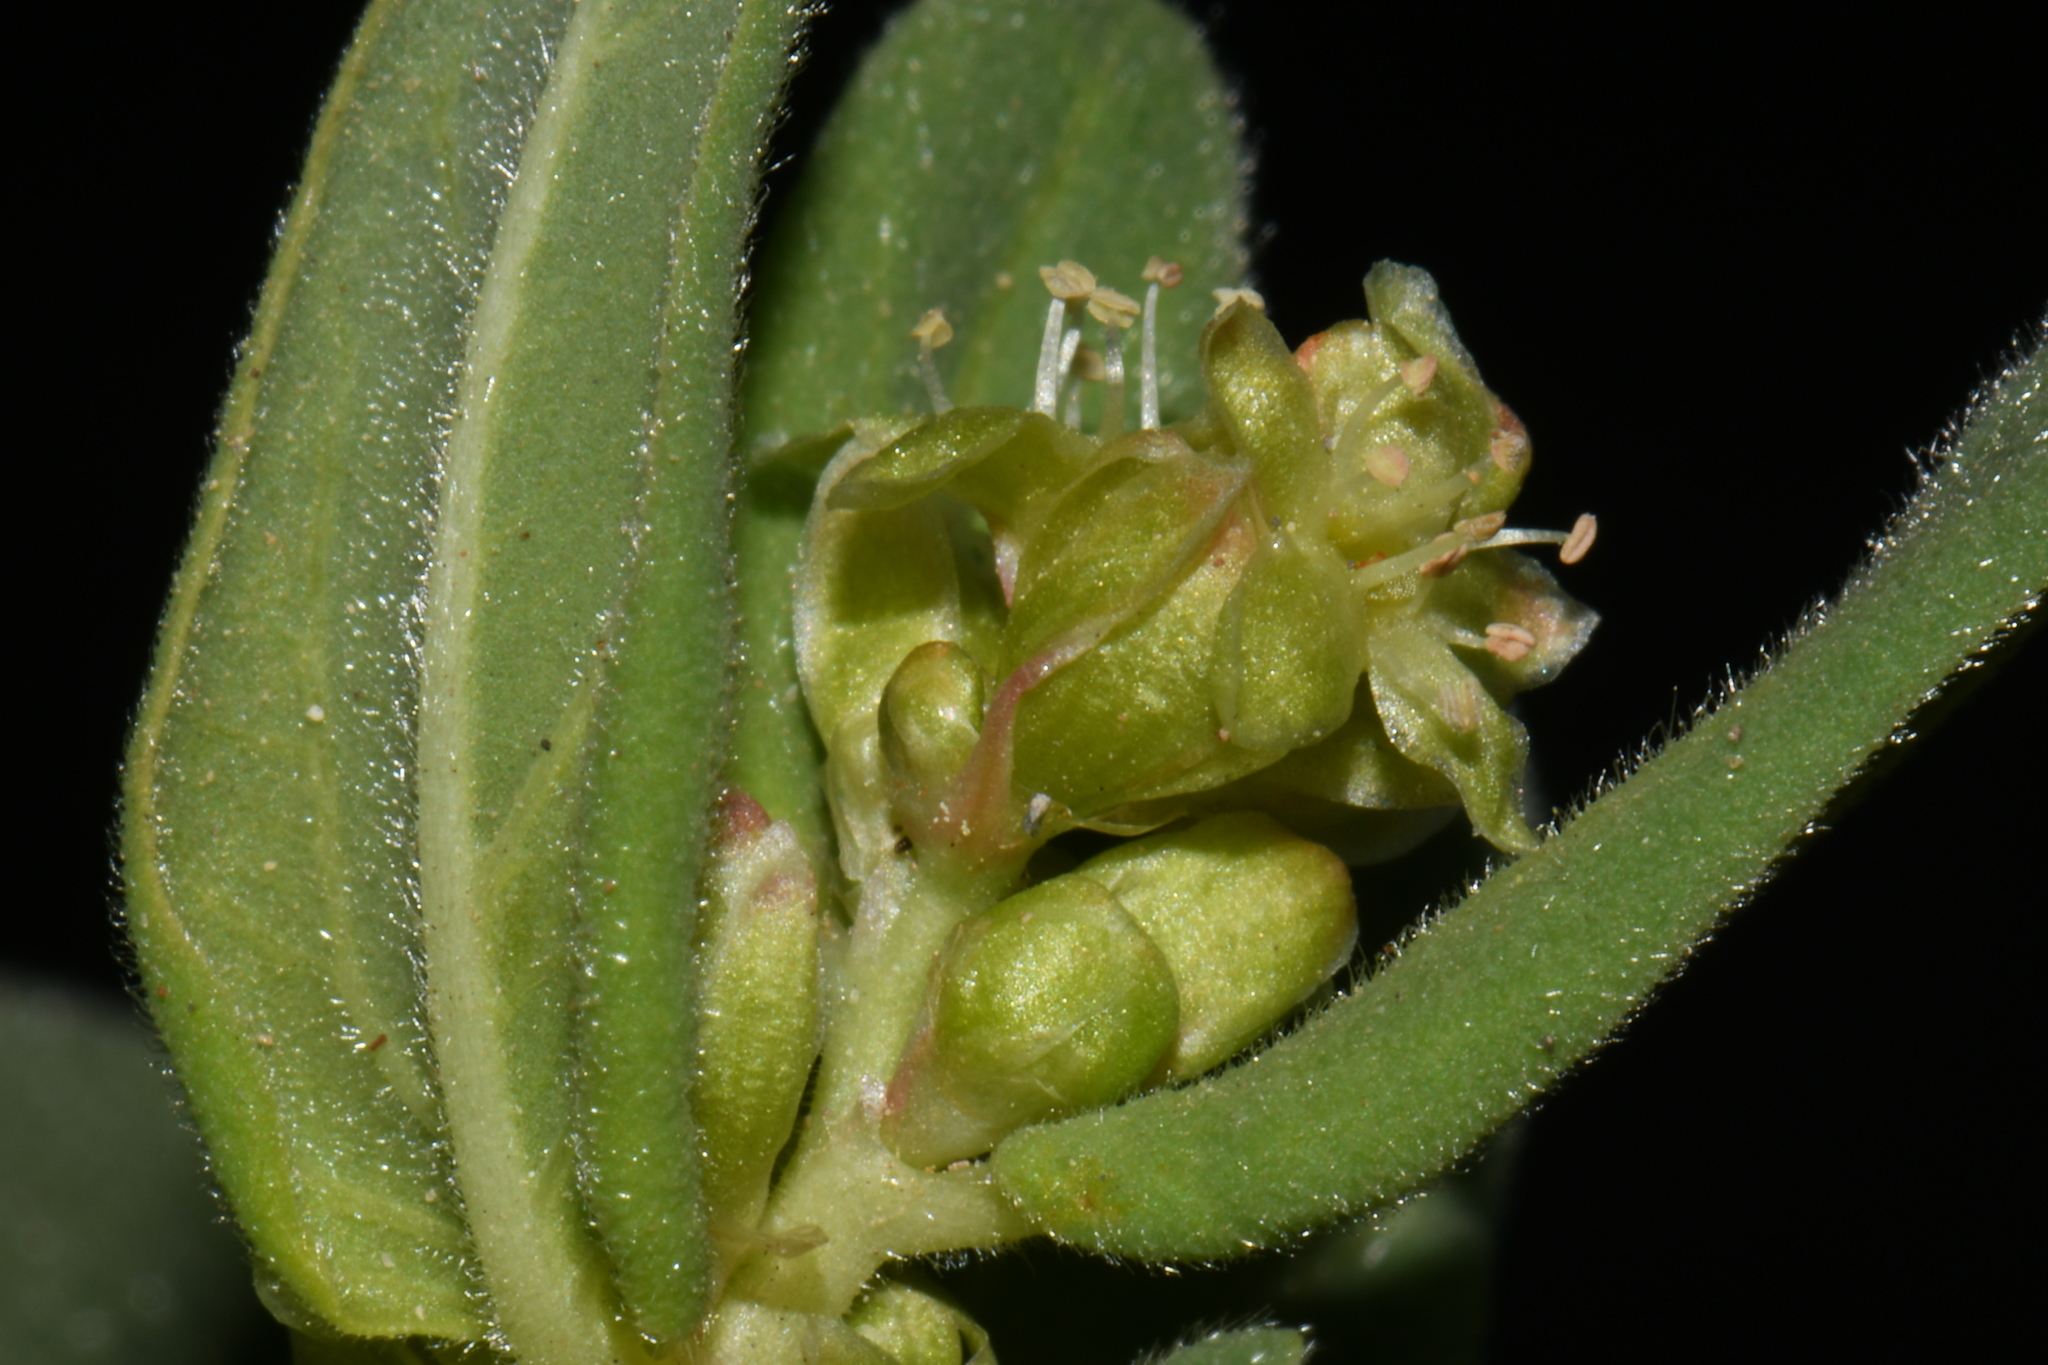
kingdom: Plantae
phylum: Tracheophyta
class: Magnoliopsida
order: Caryophyllales
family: Polygonaceae
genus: Koenigia
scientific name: Koenigia davisiae
